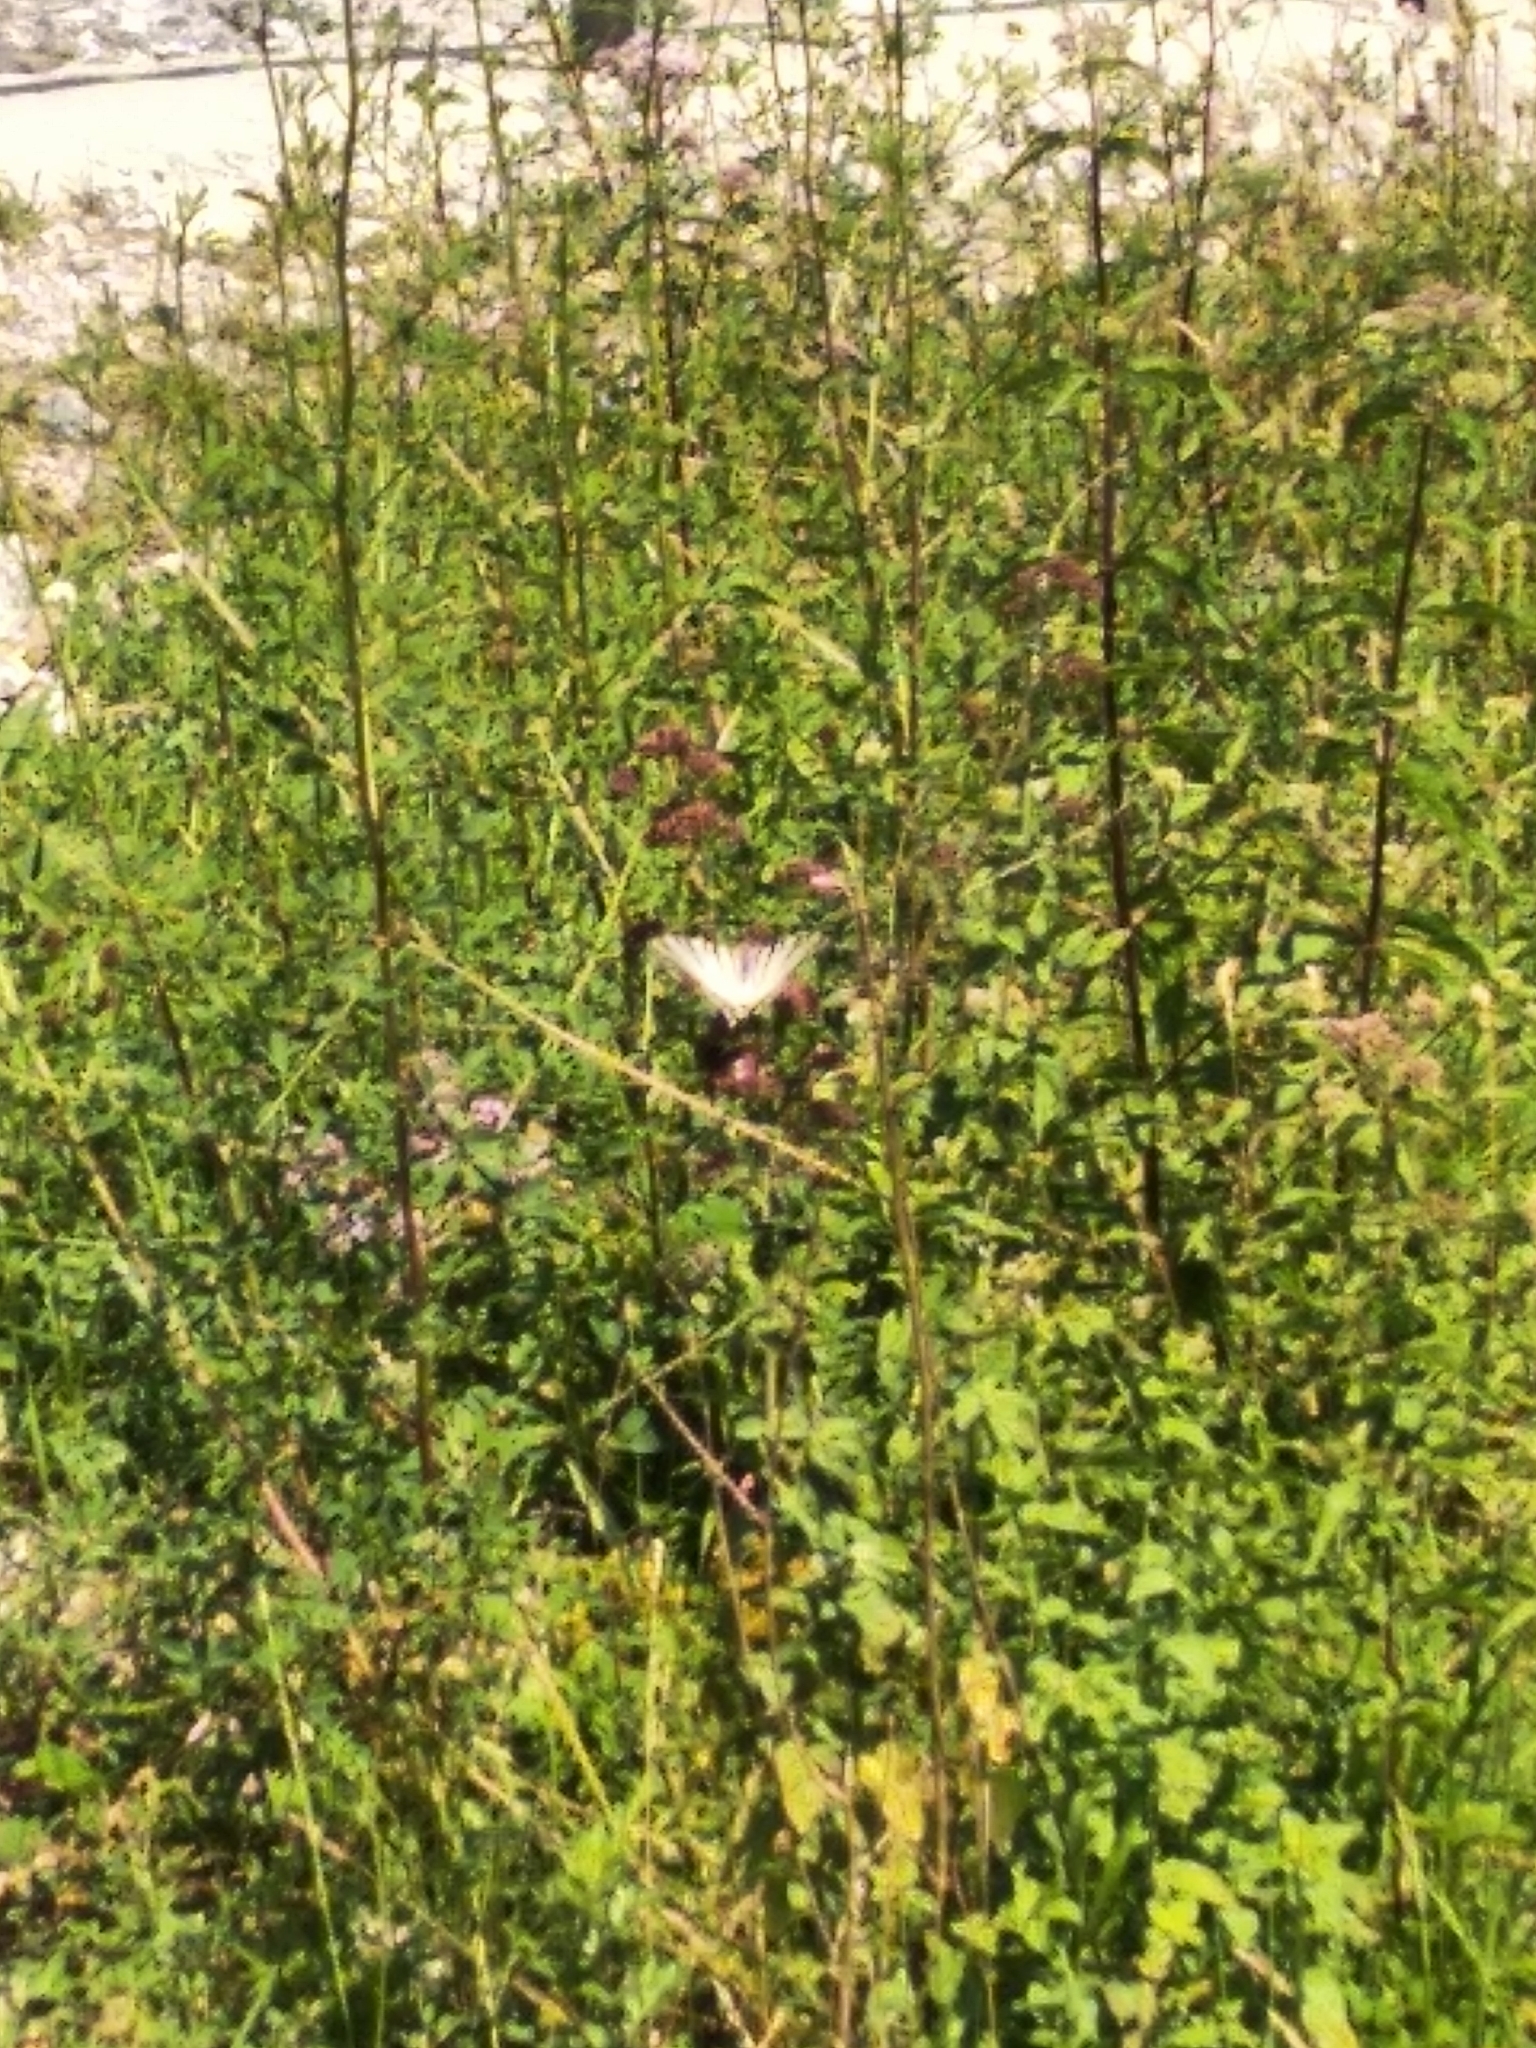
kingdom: Animalia
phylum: Arthropoda
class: Insecta
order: Lepidoptera
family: Papilionidae
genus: Iphiclides
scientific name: Iphiclides podalirius
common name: Scarce swallowtail
